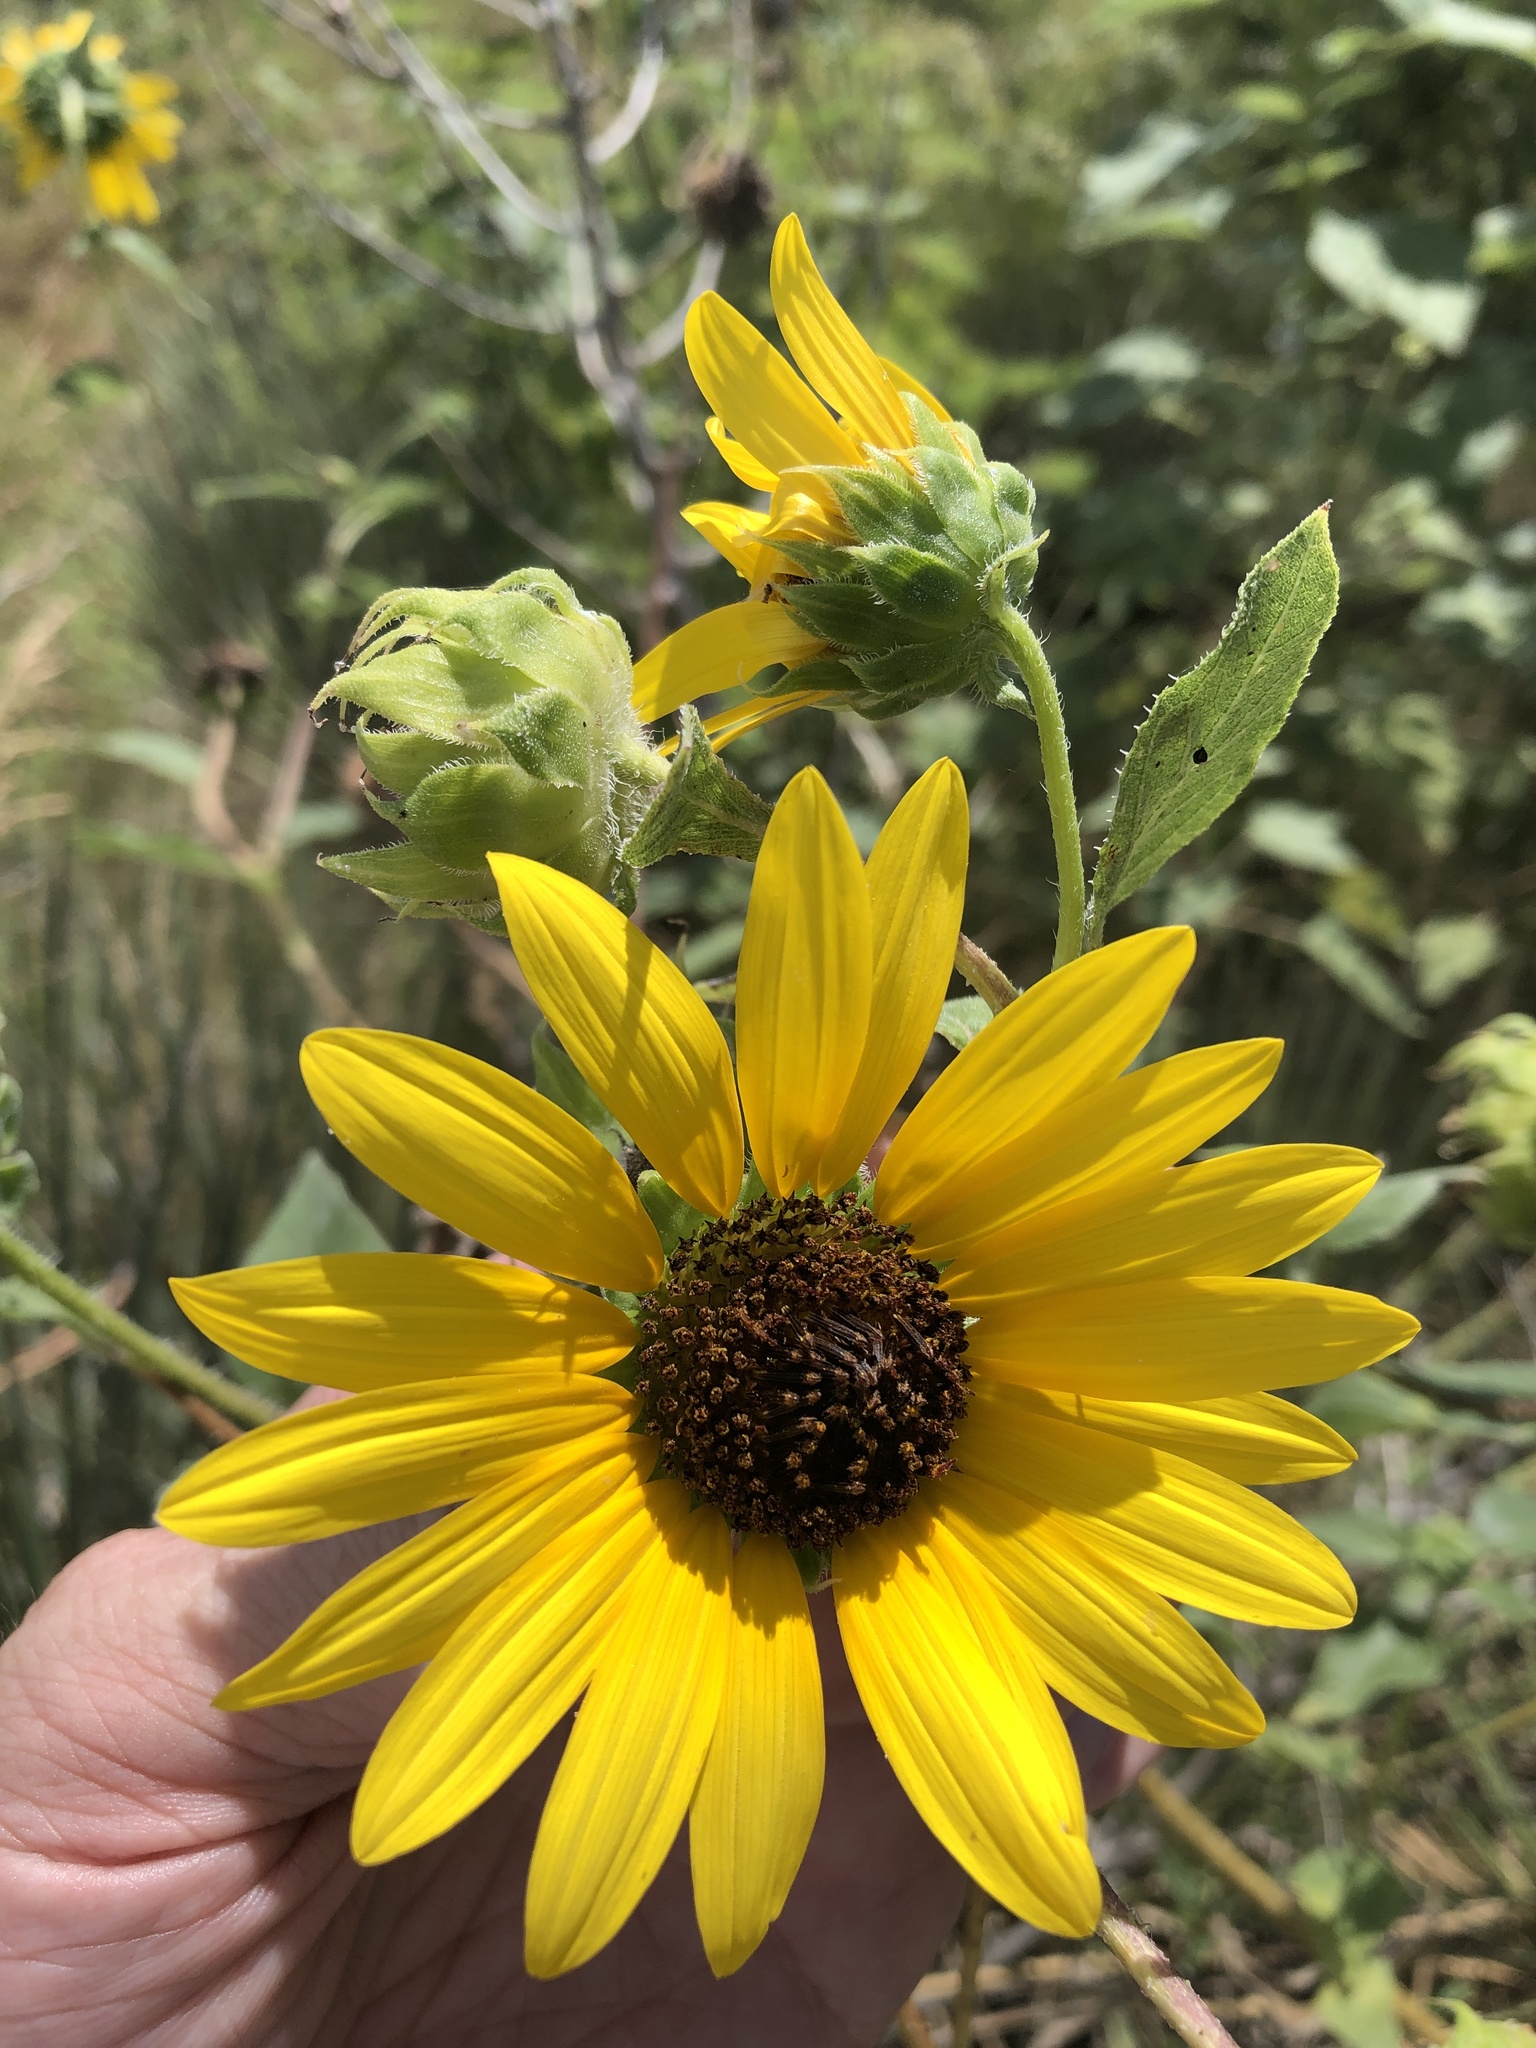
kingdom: Plantae
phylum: Tracheophyta
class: Magnoliopsida
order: Asterales
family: Asteraceae
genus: Helianthus
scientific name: Helianthus annuus
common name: Sunflower
